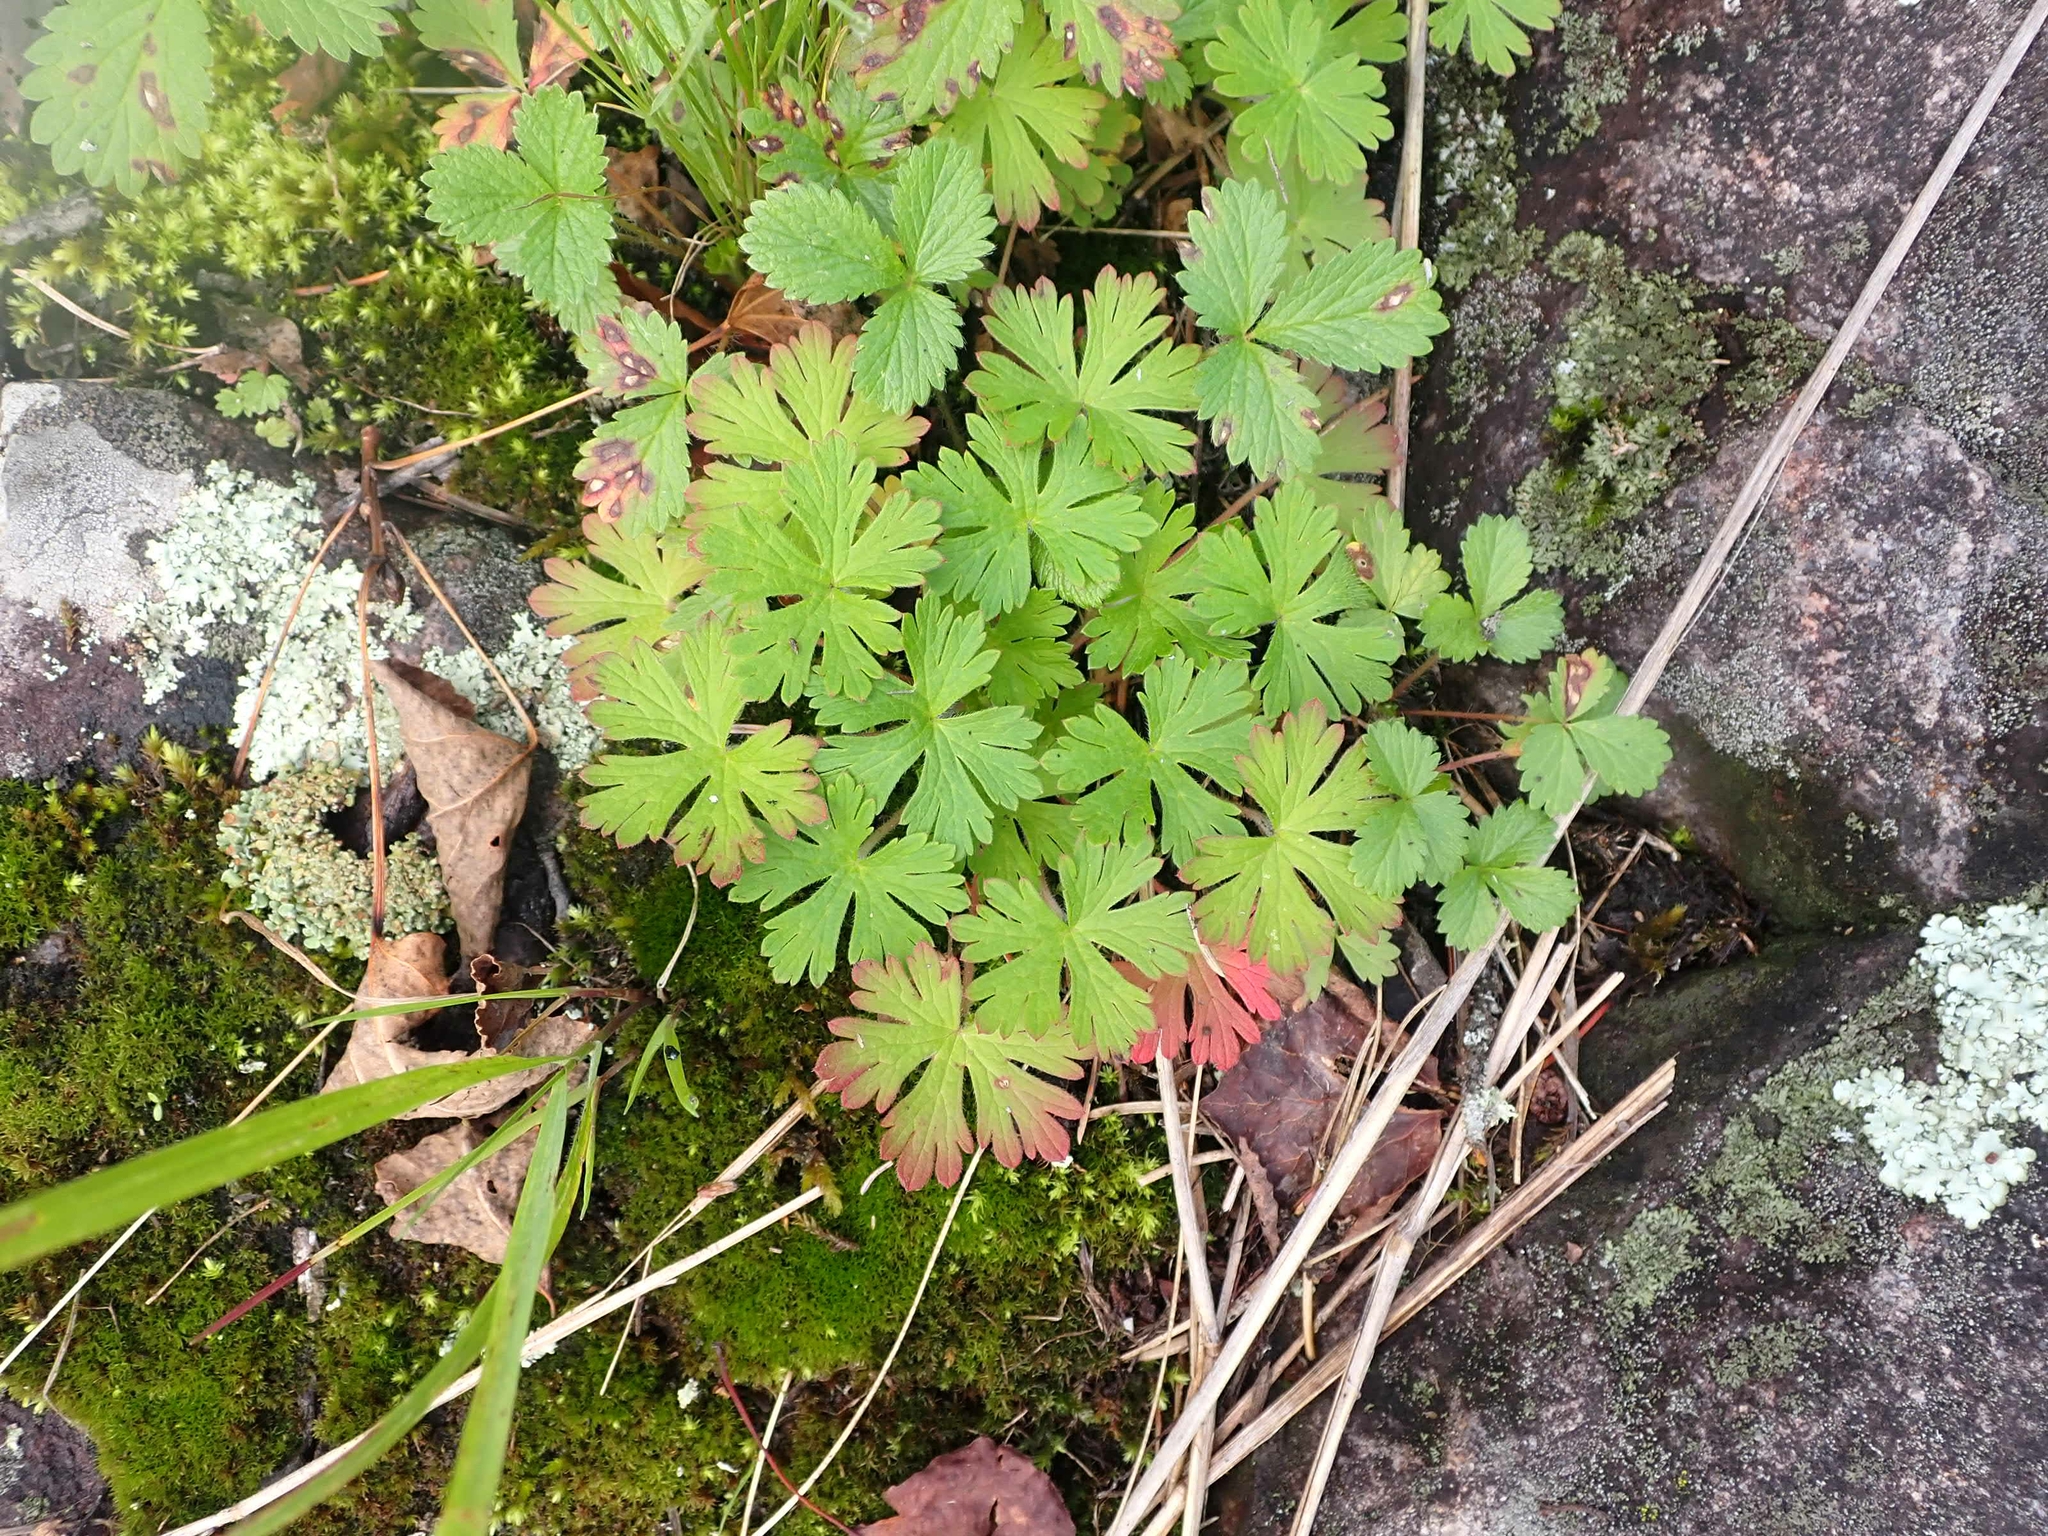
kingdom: Plantae
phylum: Tracheophyta
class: Magnoliopsida
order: Geraniales
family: Geraniaceae
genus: Geranium
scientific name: Geranium bicknellii
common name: Bicknell's cranesbill
